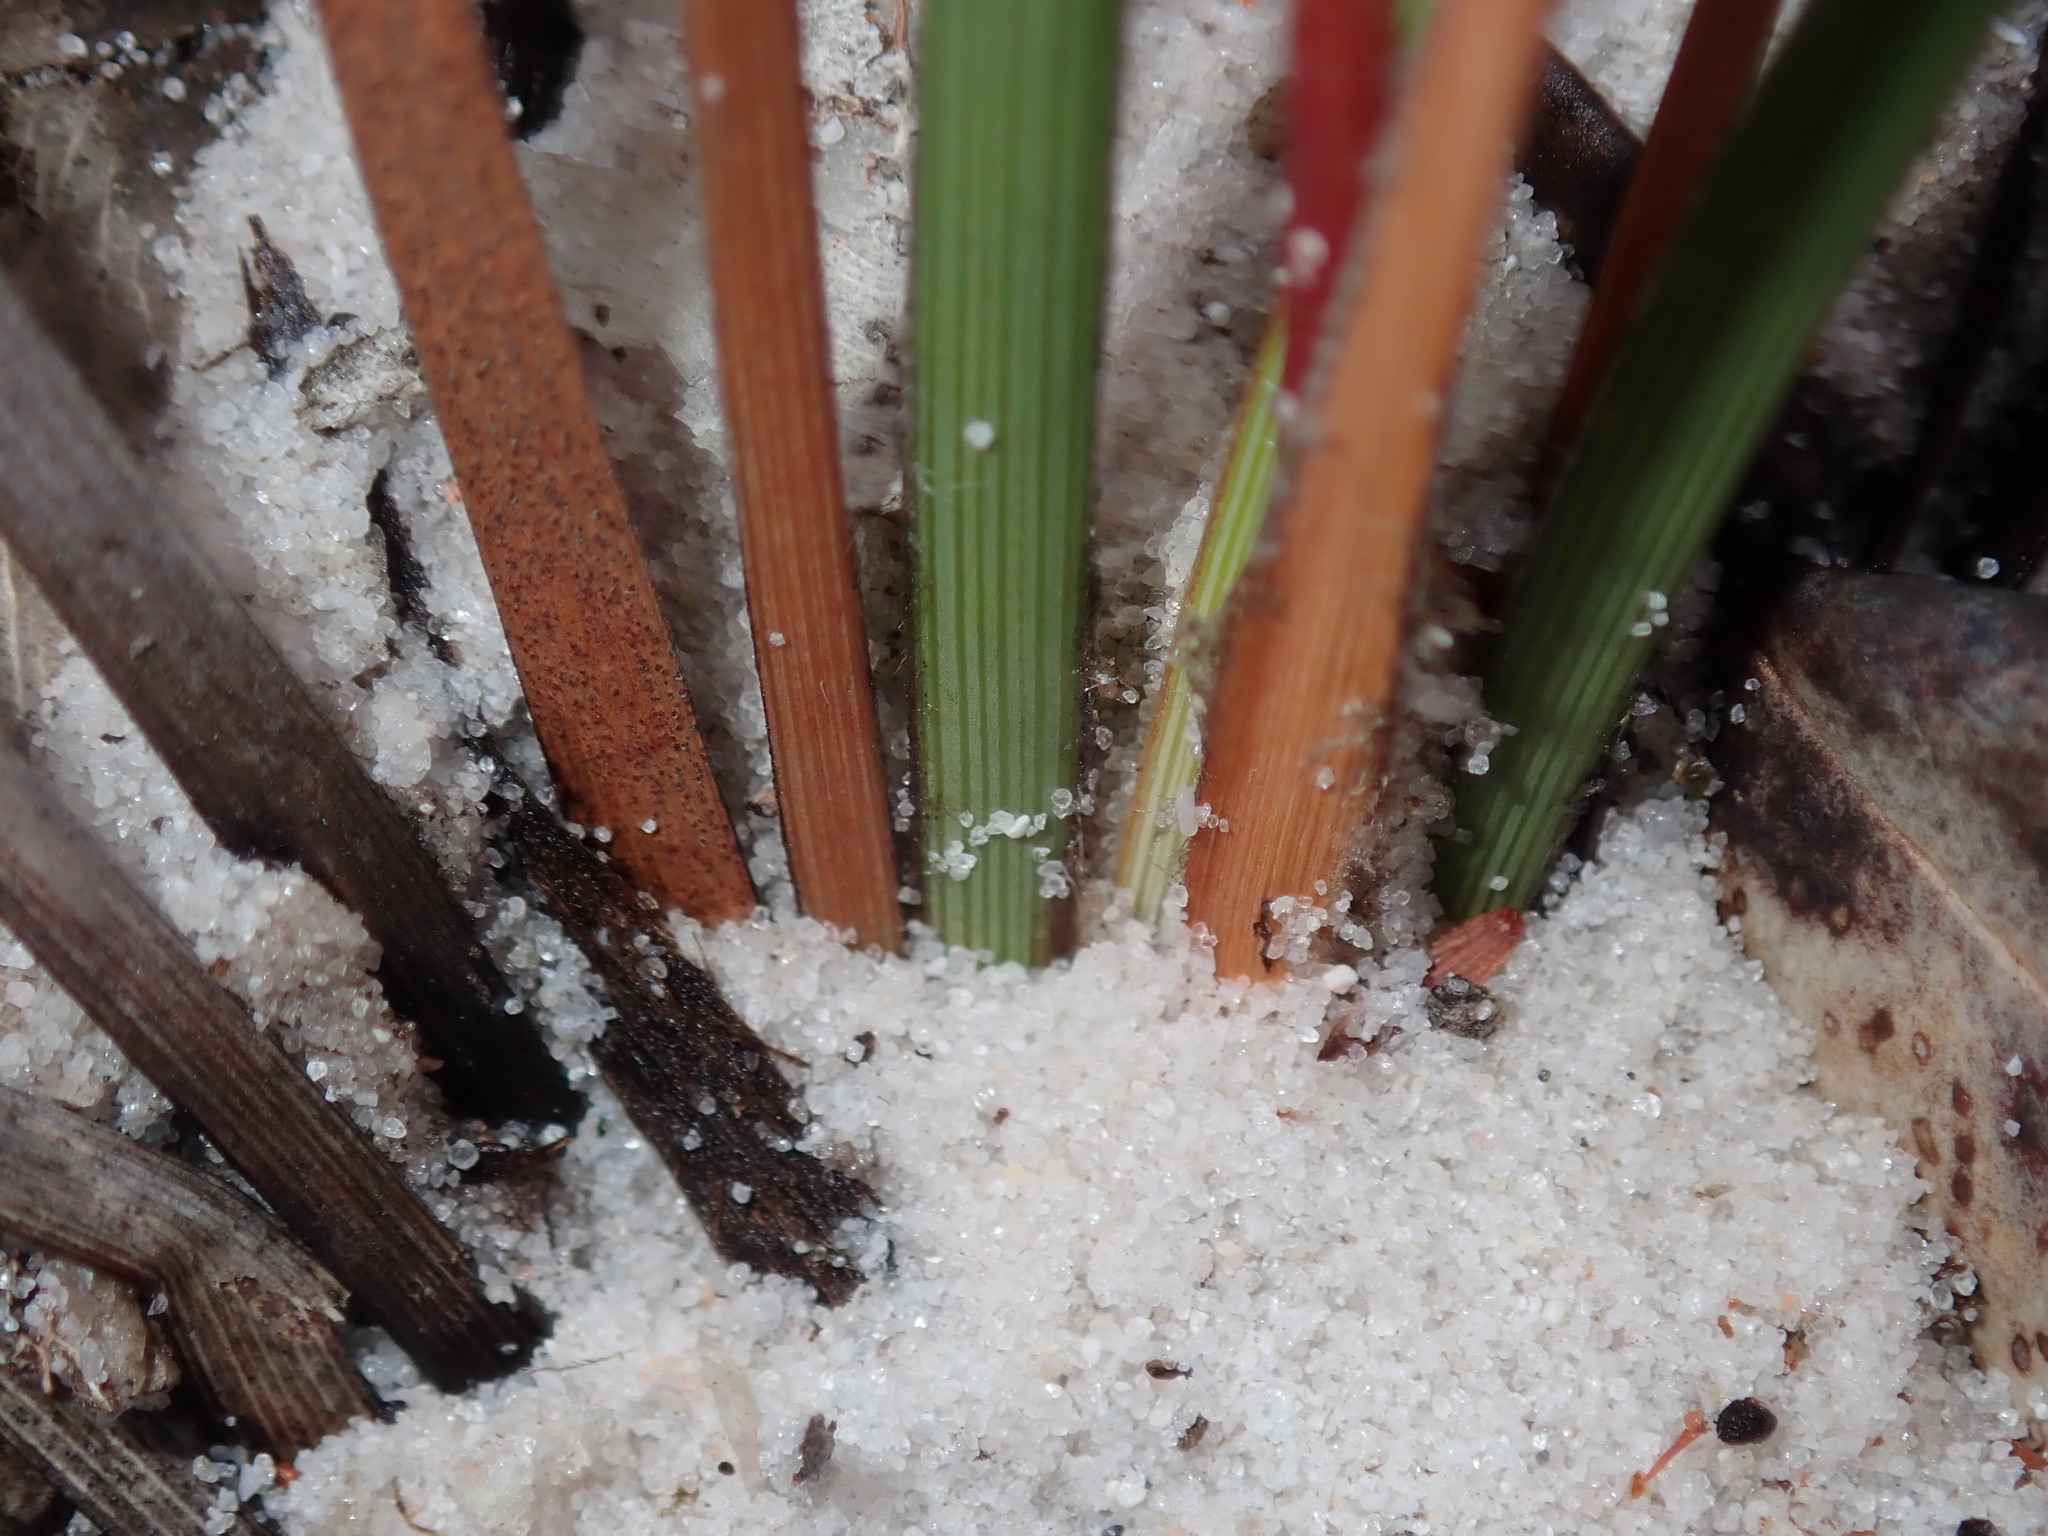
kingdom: Plantae
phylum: Tracheophyta
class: Liliopsida
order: Asparagales
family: Iridaceae
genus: Patersonia
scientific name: Patersonia sericea
